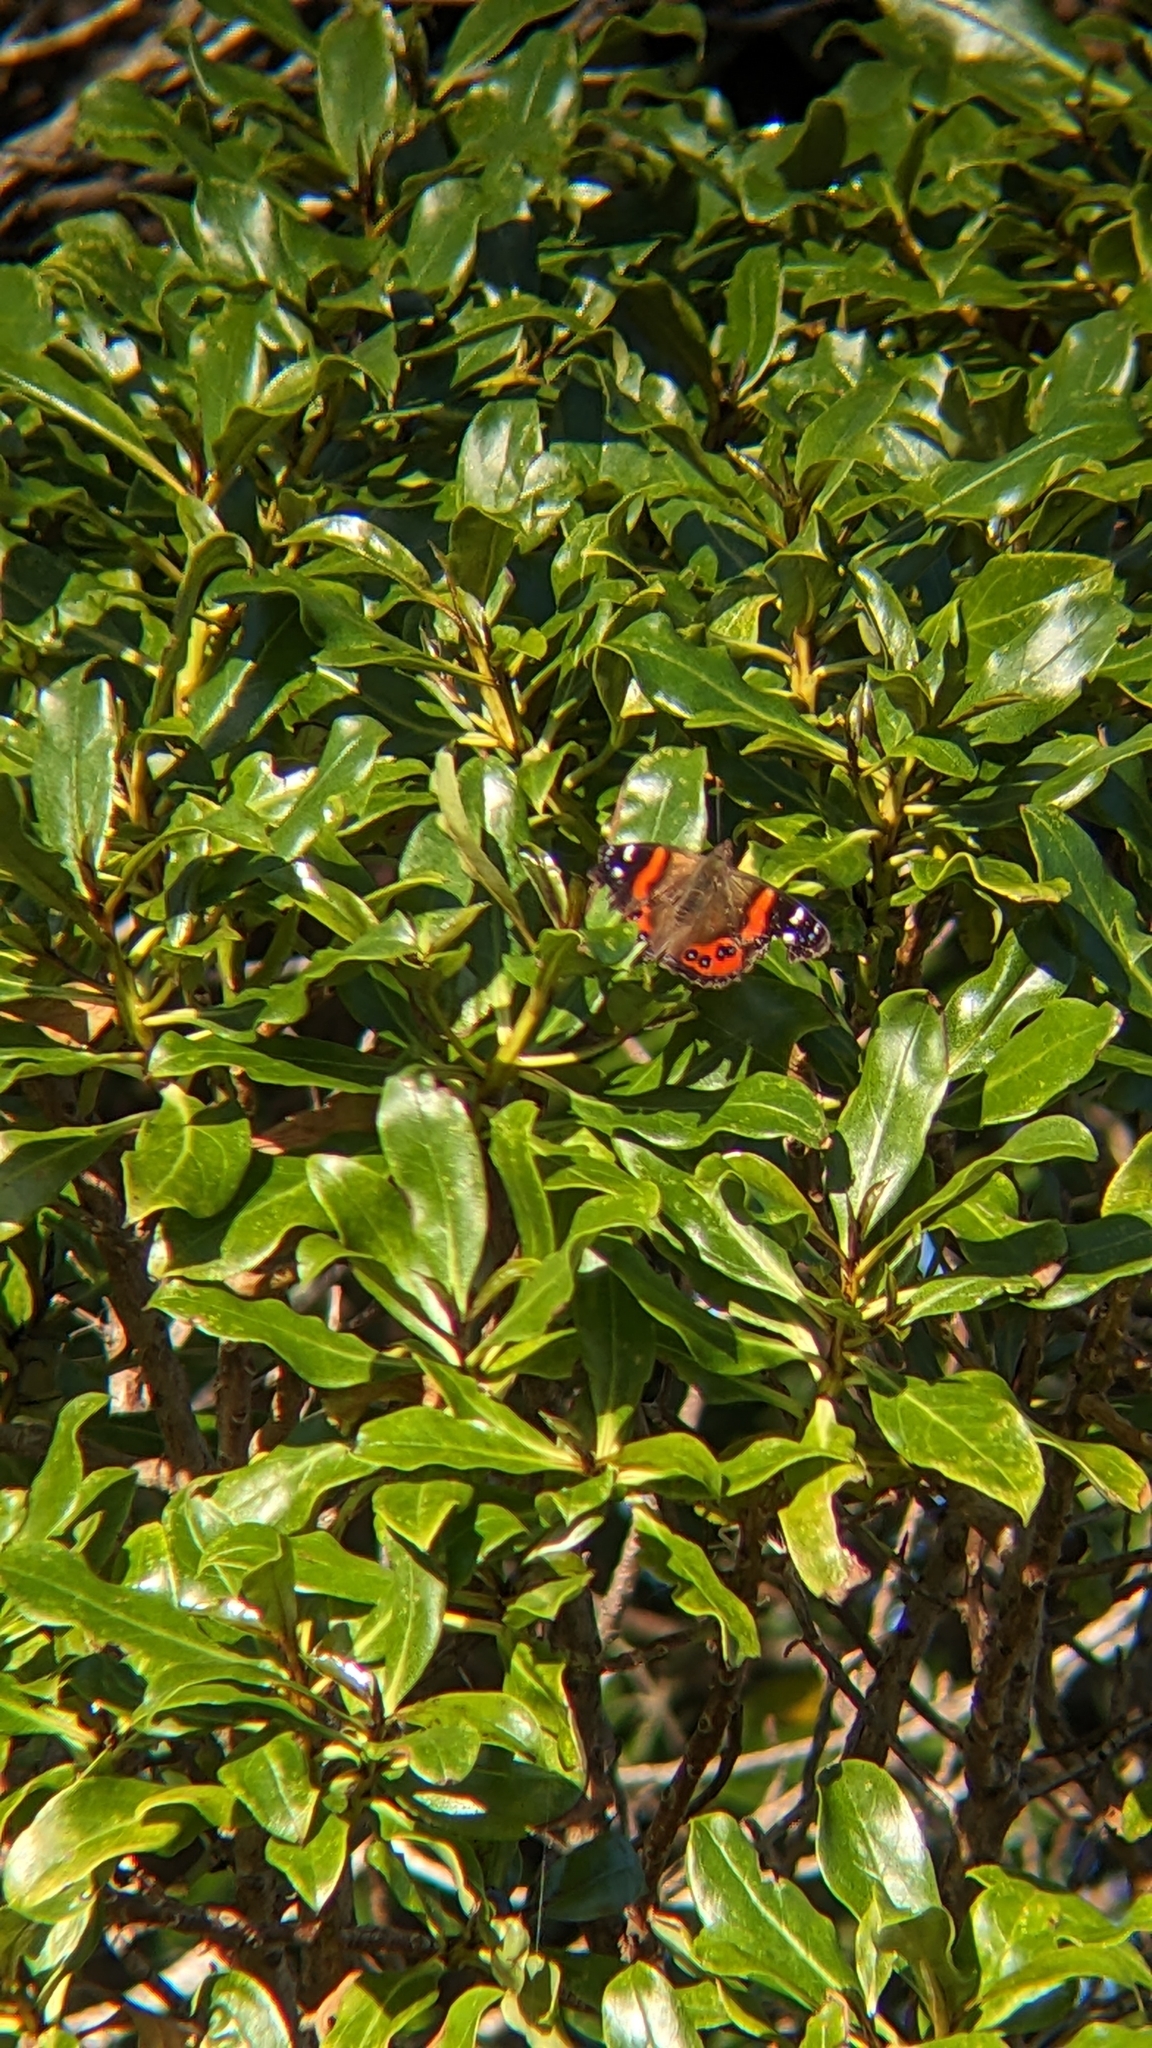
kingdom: Animalia
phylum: Arthropoda
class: Insecta
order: Lepidoptera
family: Nymphalidae
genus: Vanessa
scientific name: Vanessa gonerilla
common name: New zealand red admiral
